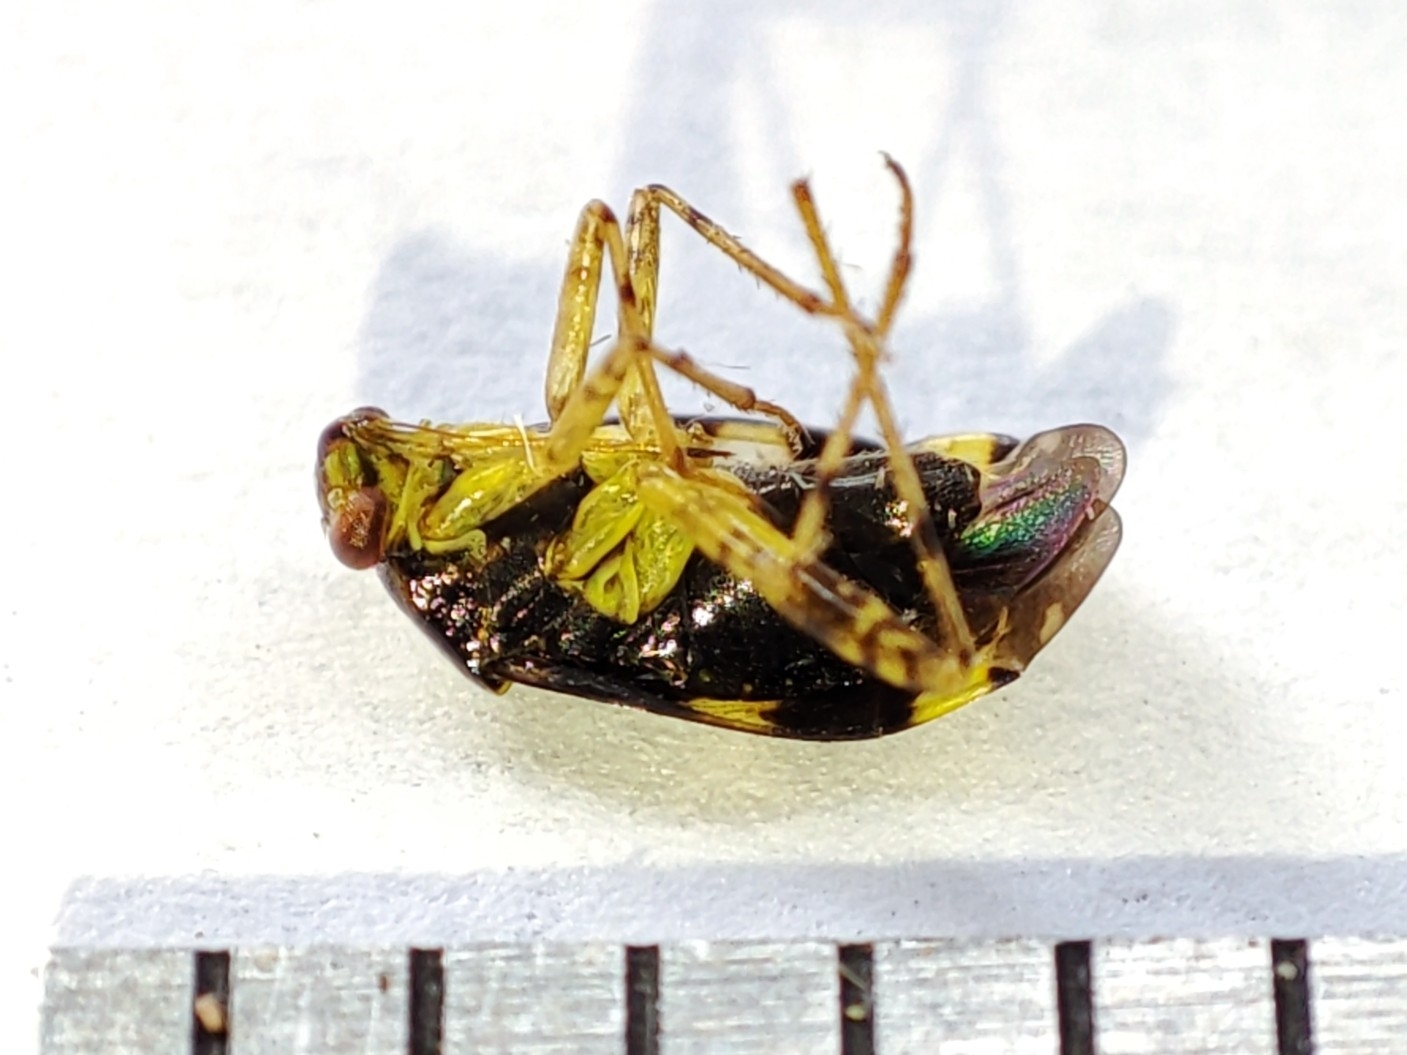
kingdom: Animalia
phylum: Arthropoda
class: Insecta
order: Hemiptera
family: Miridae
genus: Liocoris
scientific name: Liocoris tripustulatus
